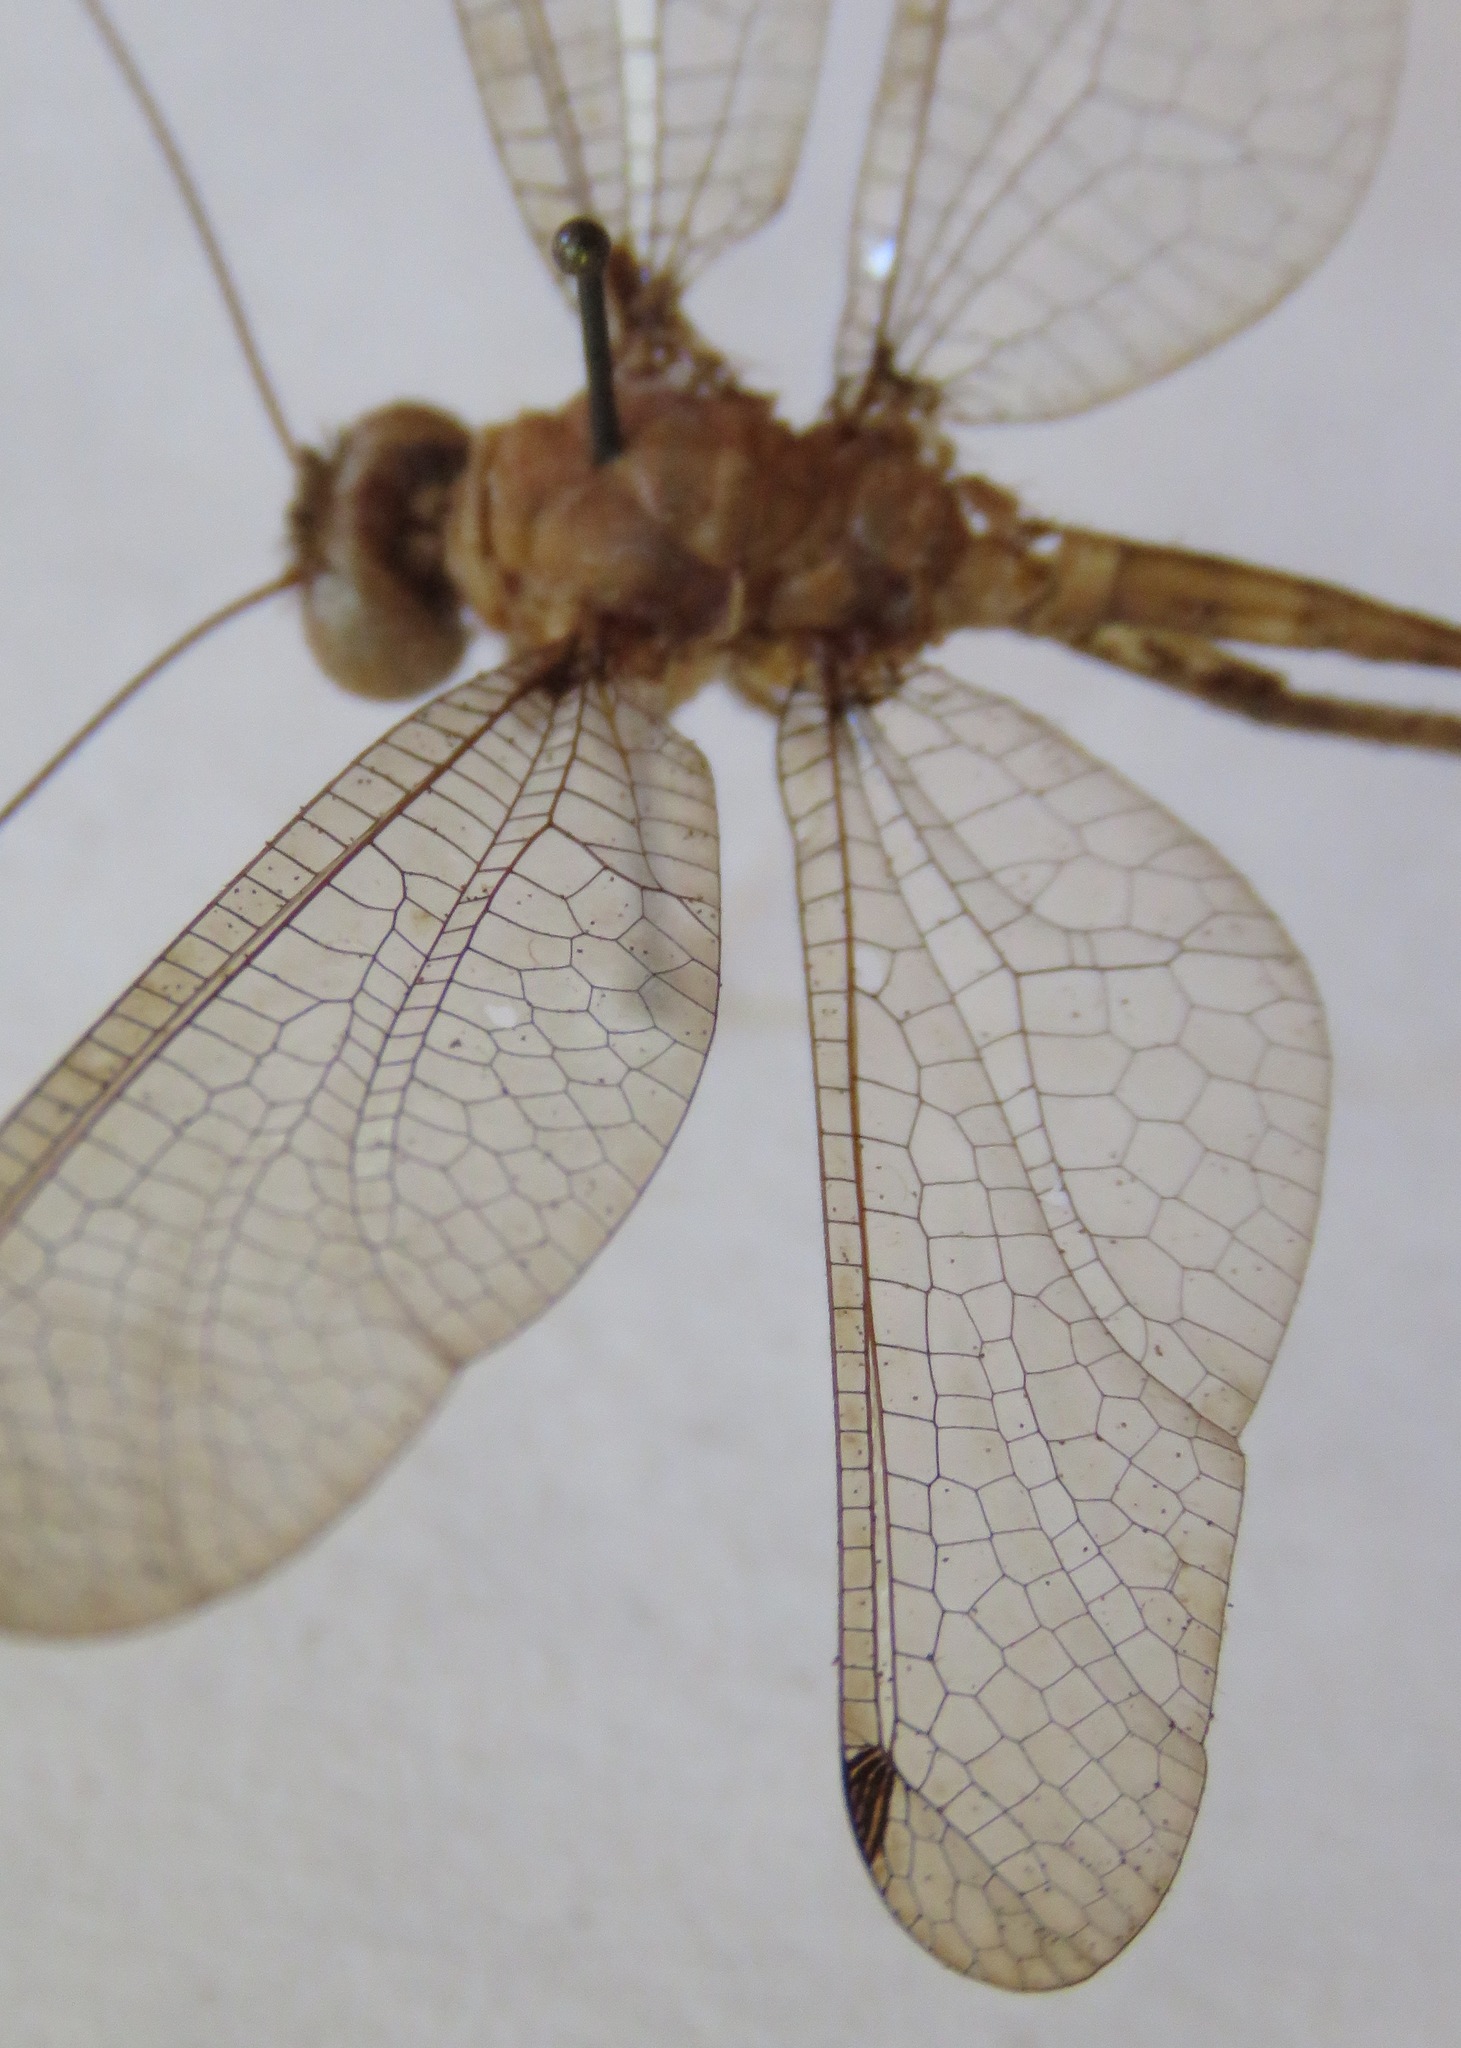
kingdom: Animalia
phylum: Arthropoda
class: Insecta
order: Neuroptera
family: Ascalaphidae
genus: Amoea
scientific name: Amoea vacua
